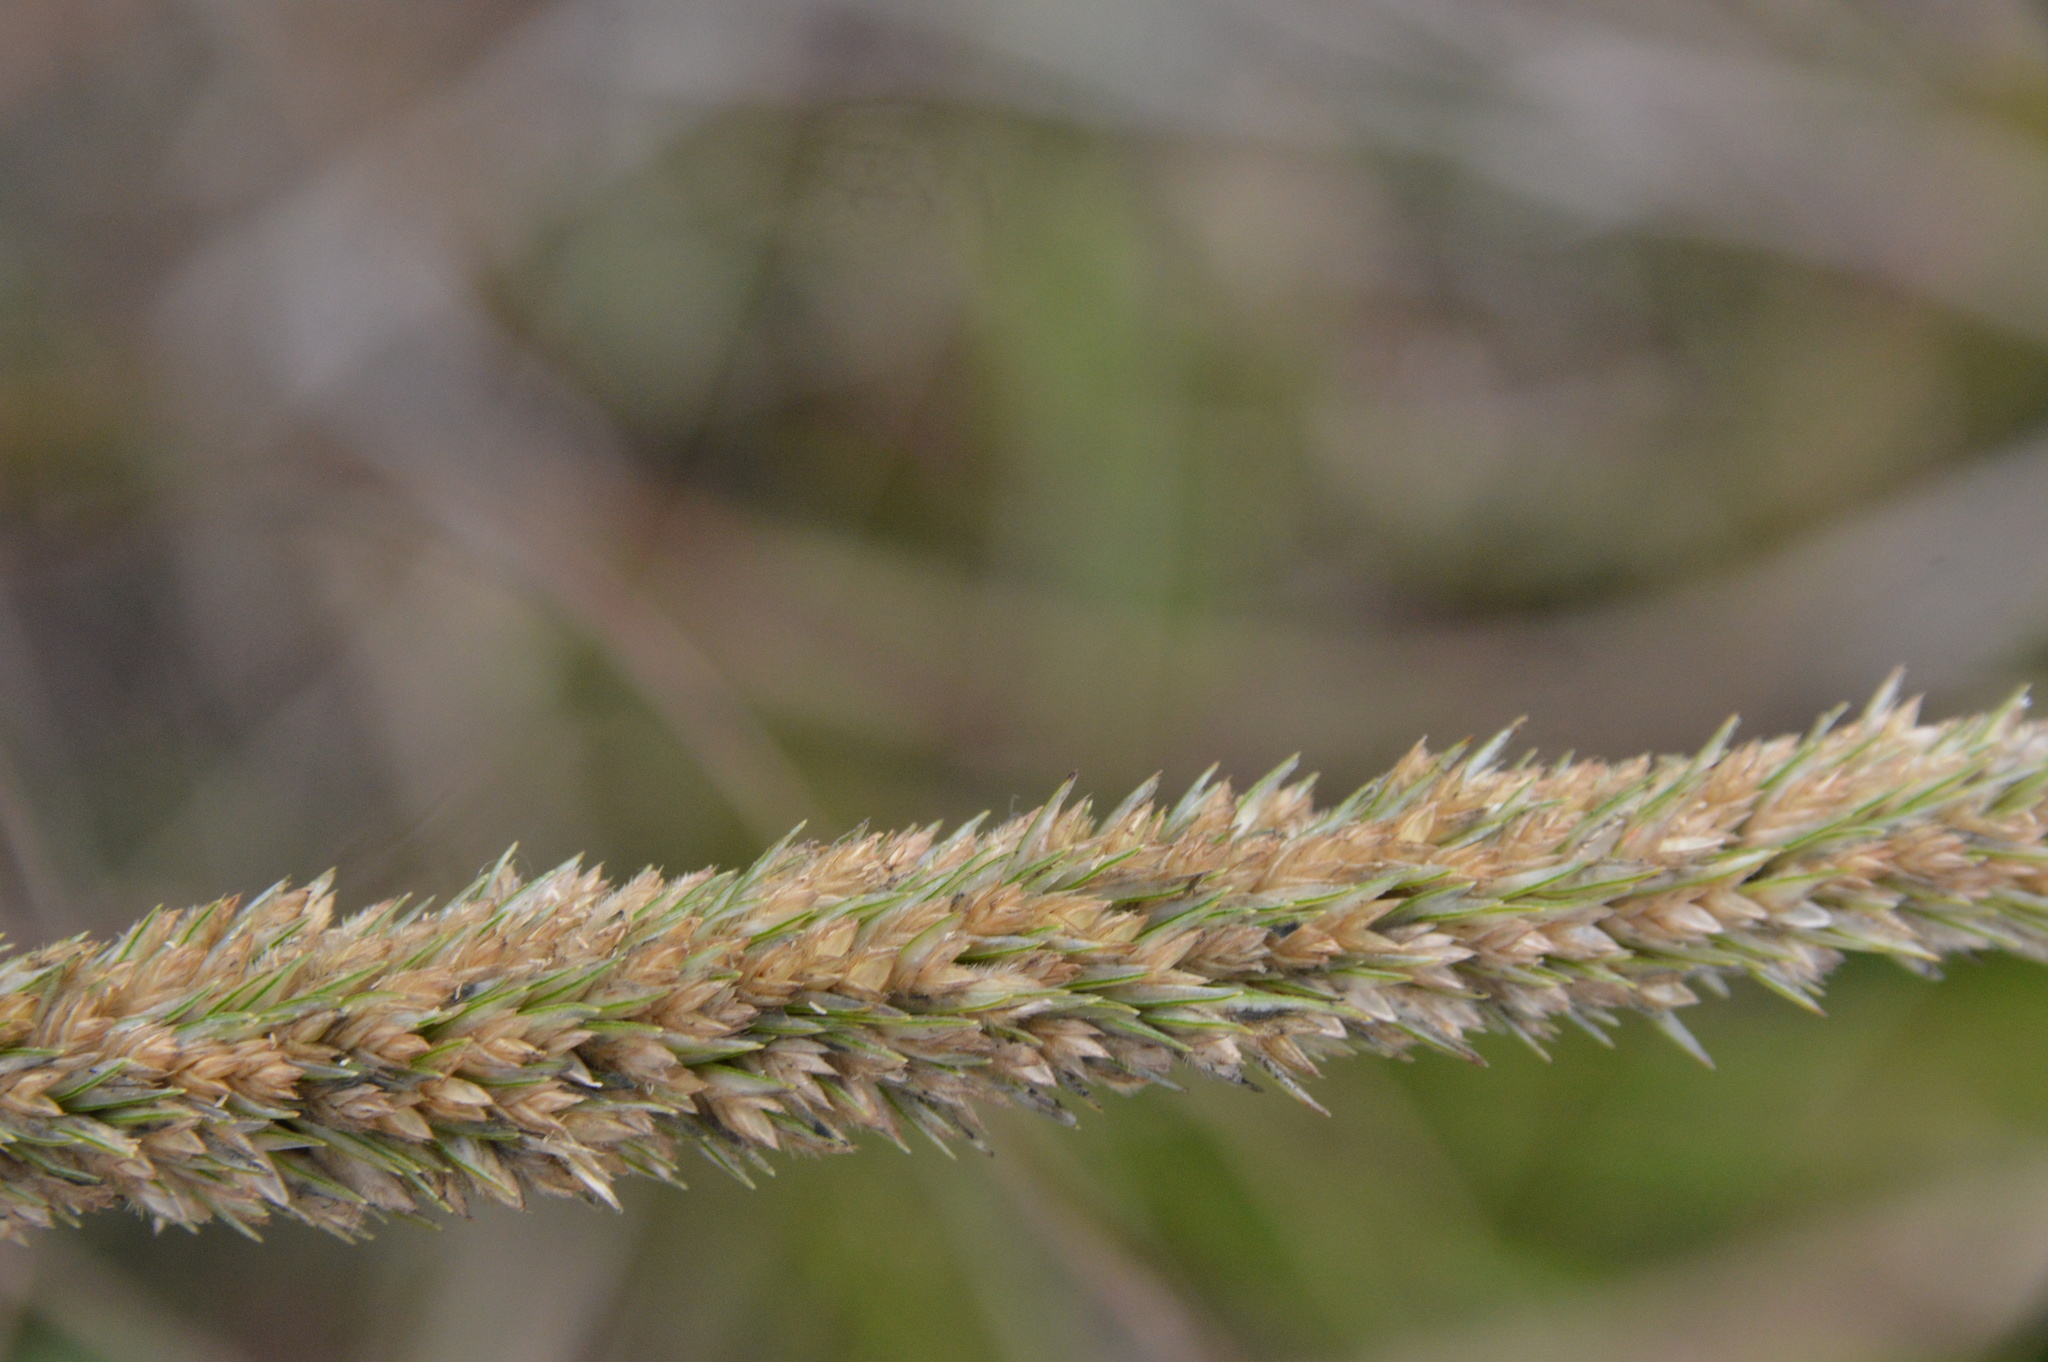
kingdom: Plantae
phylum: Tracheophyta
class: Liliopsida
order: Poales
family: Poaceae
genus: Tridens
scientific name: Tridens strictus
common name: Long-spike tridens
